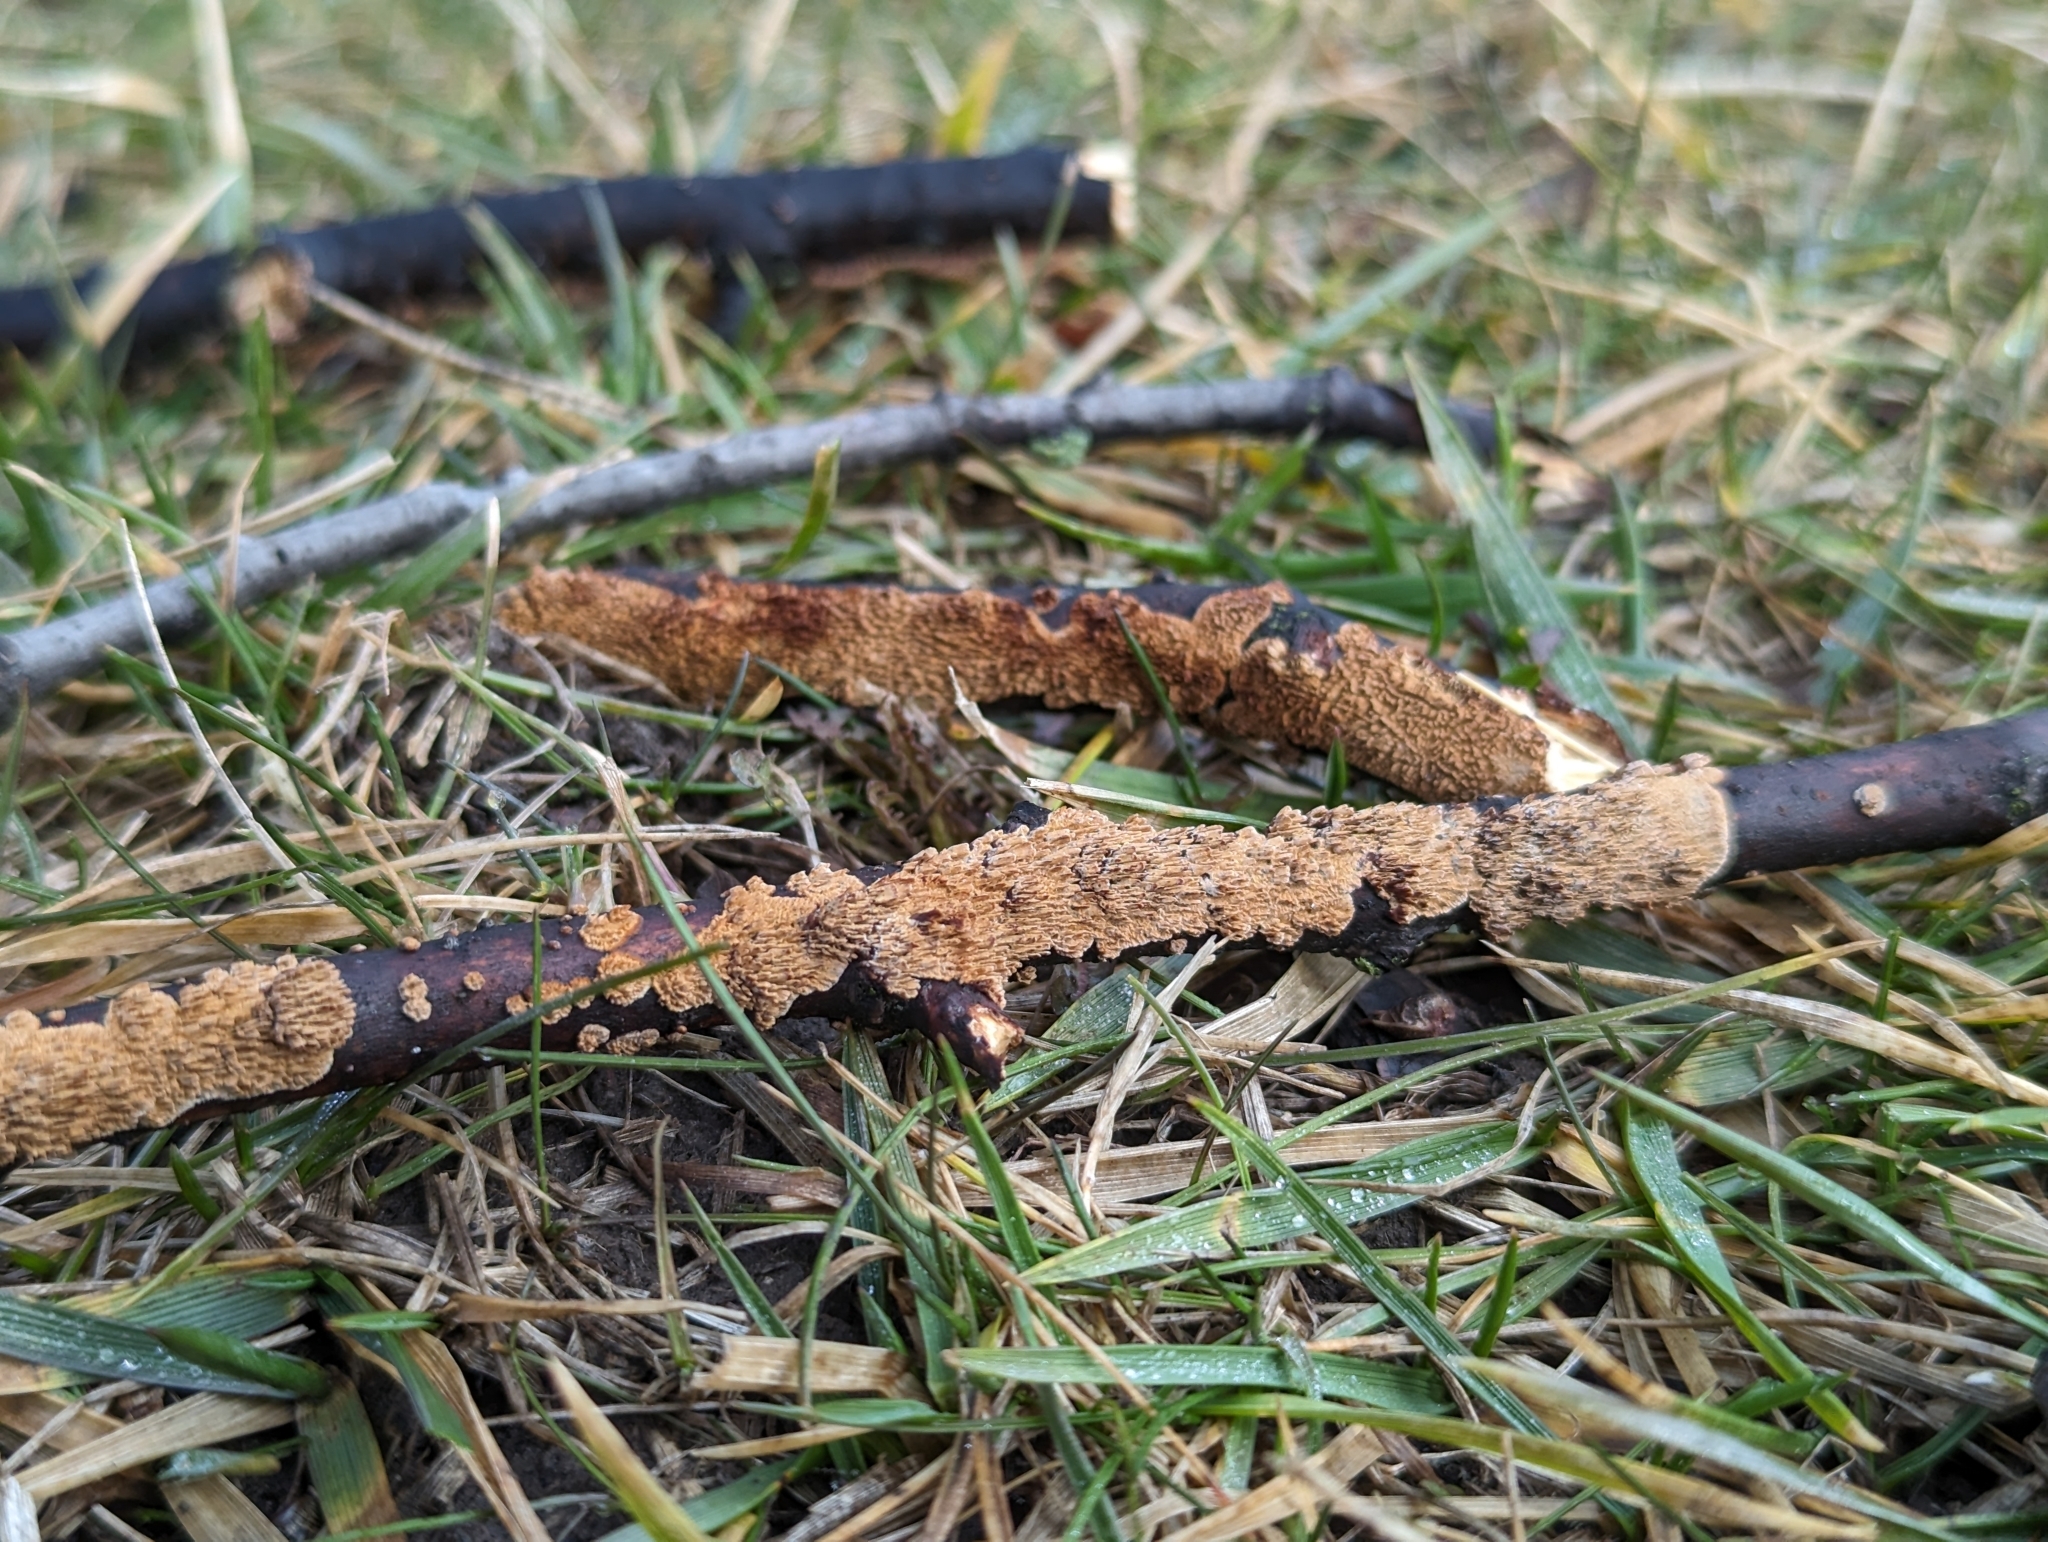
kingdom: Fungi
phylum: Basidiomycota
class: Agaricomycetes
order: Hymenochaetales
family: Hymenochaetaceae
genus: Hydnoporia
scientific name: Hydnoporia olivacea
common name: Brown-toothed crust fungus
